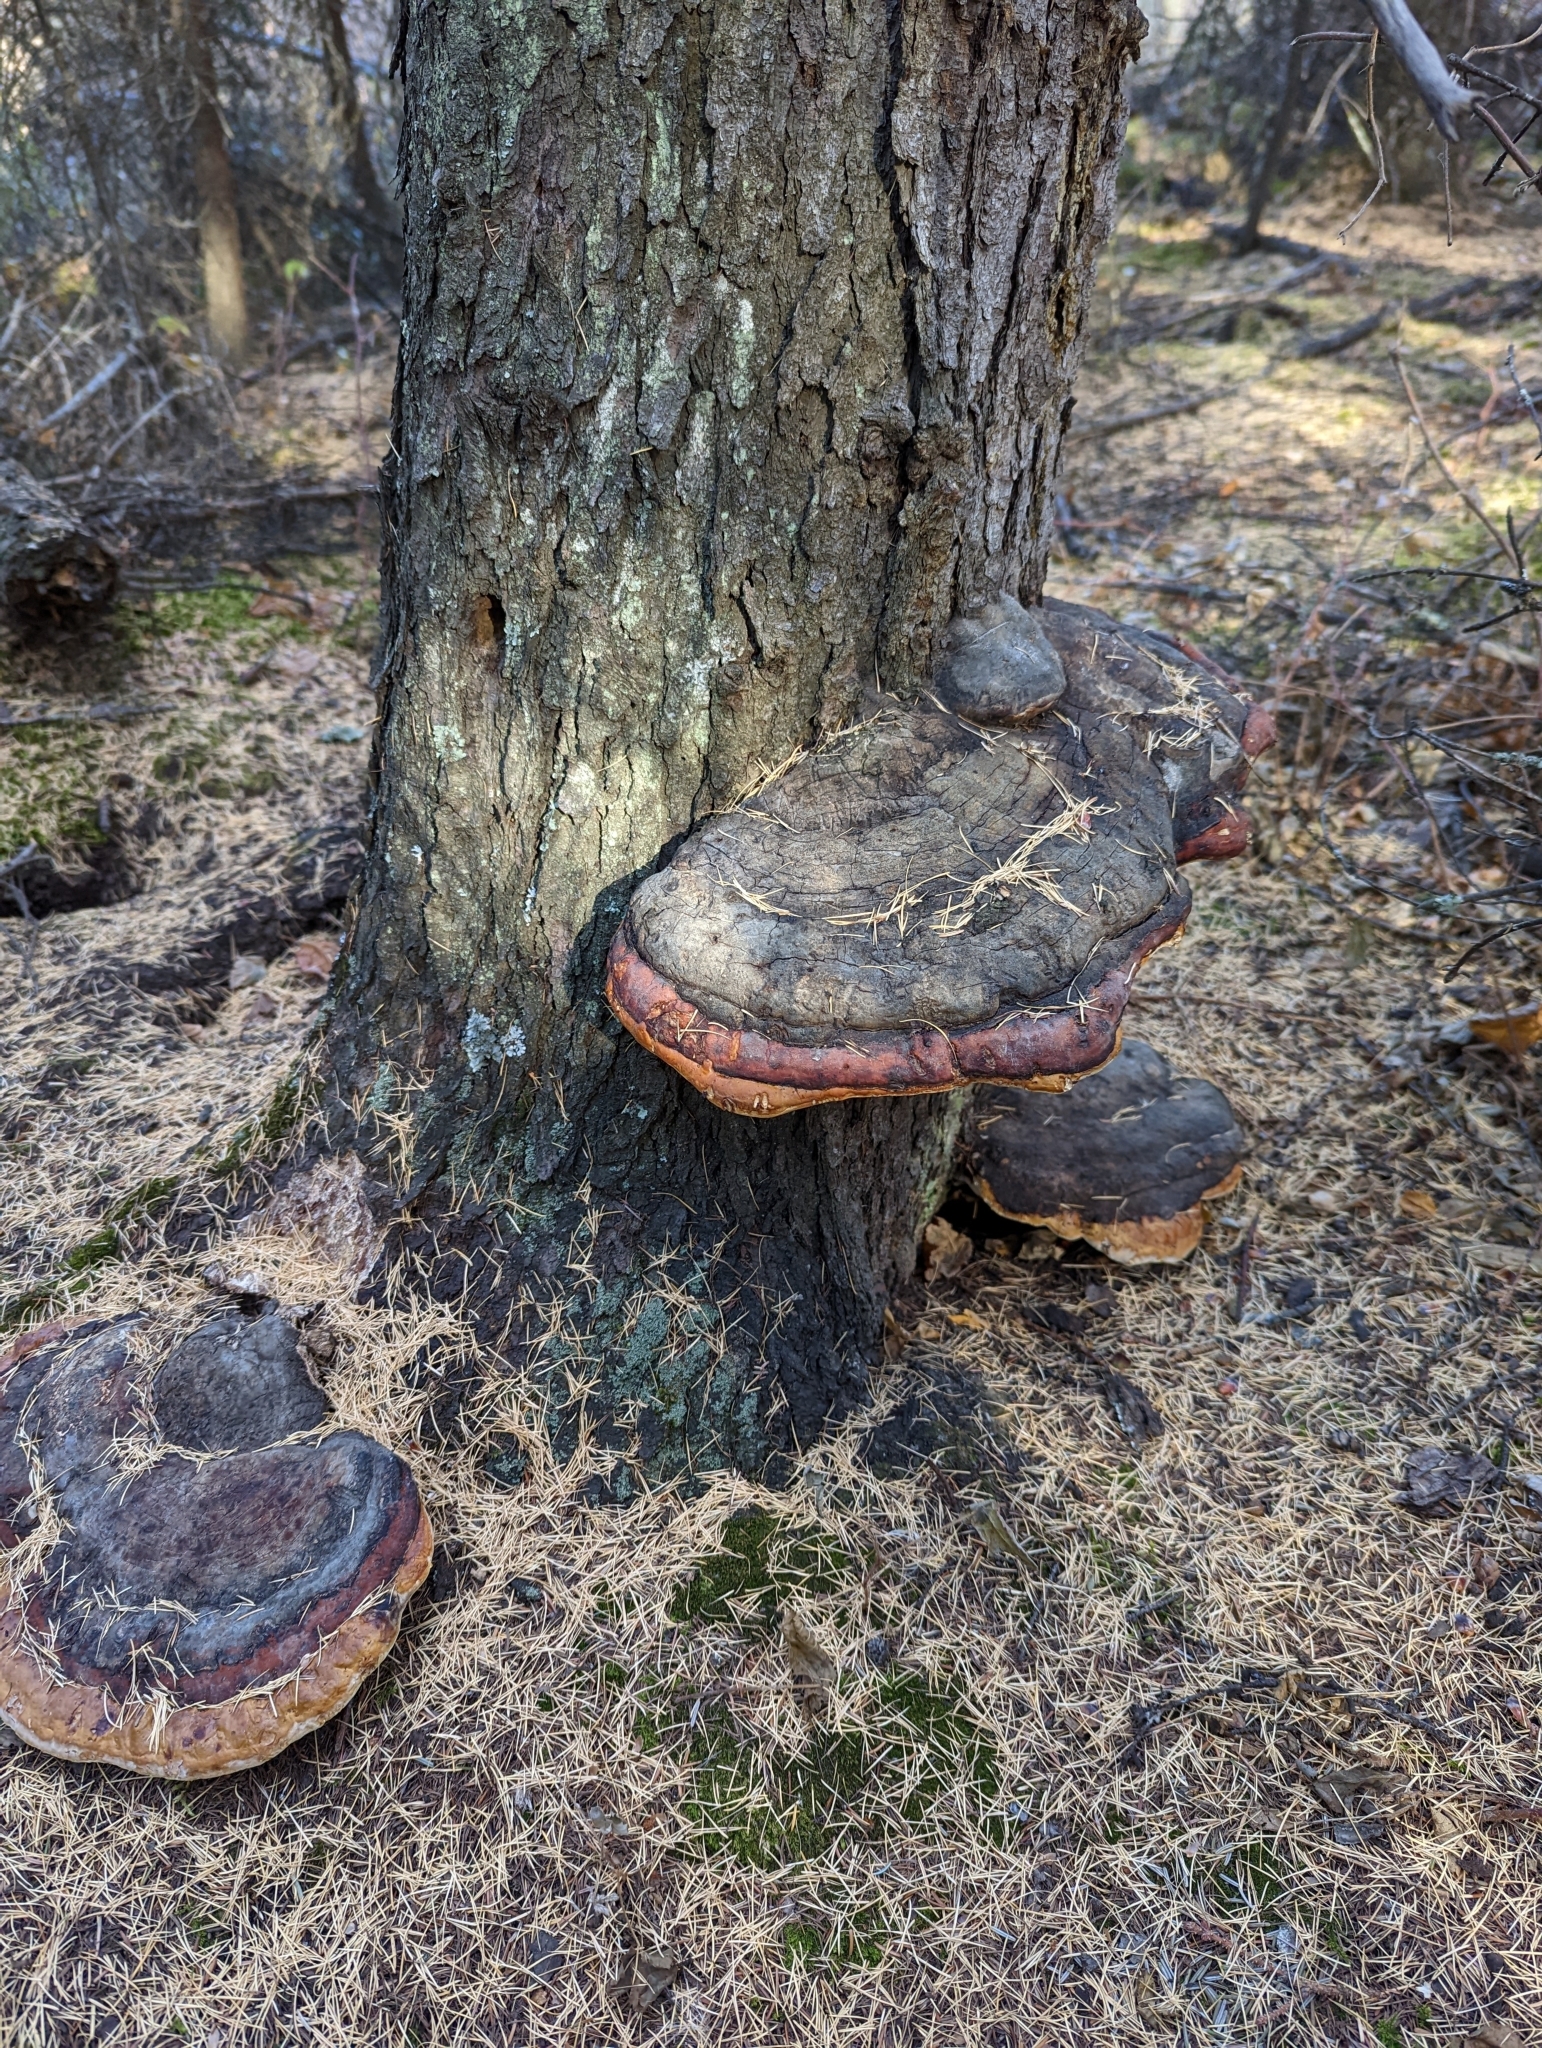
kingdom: Fungi
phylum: Basidiomycota
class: Agaricomycetes
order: Polyporales
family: Fomitopsidaceae
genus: Fomitopsis
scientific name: Fomitopsis mounceae
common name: Northern red belt
